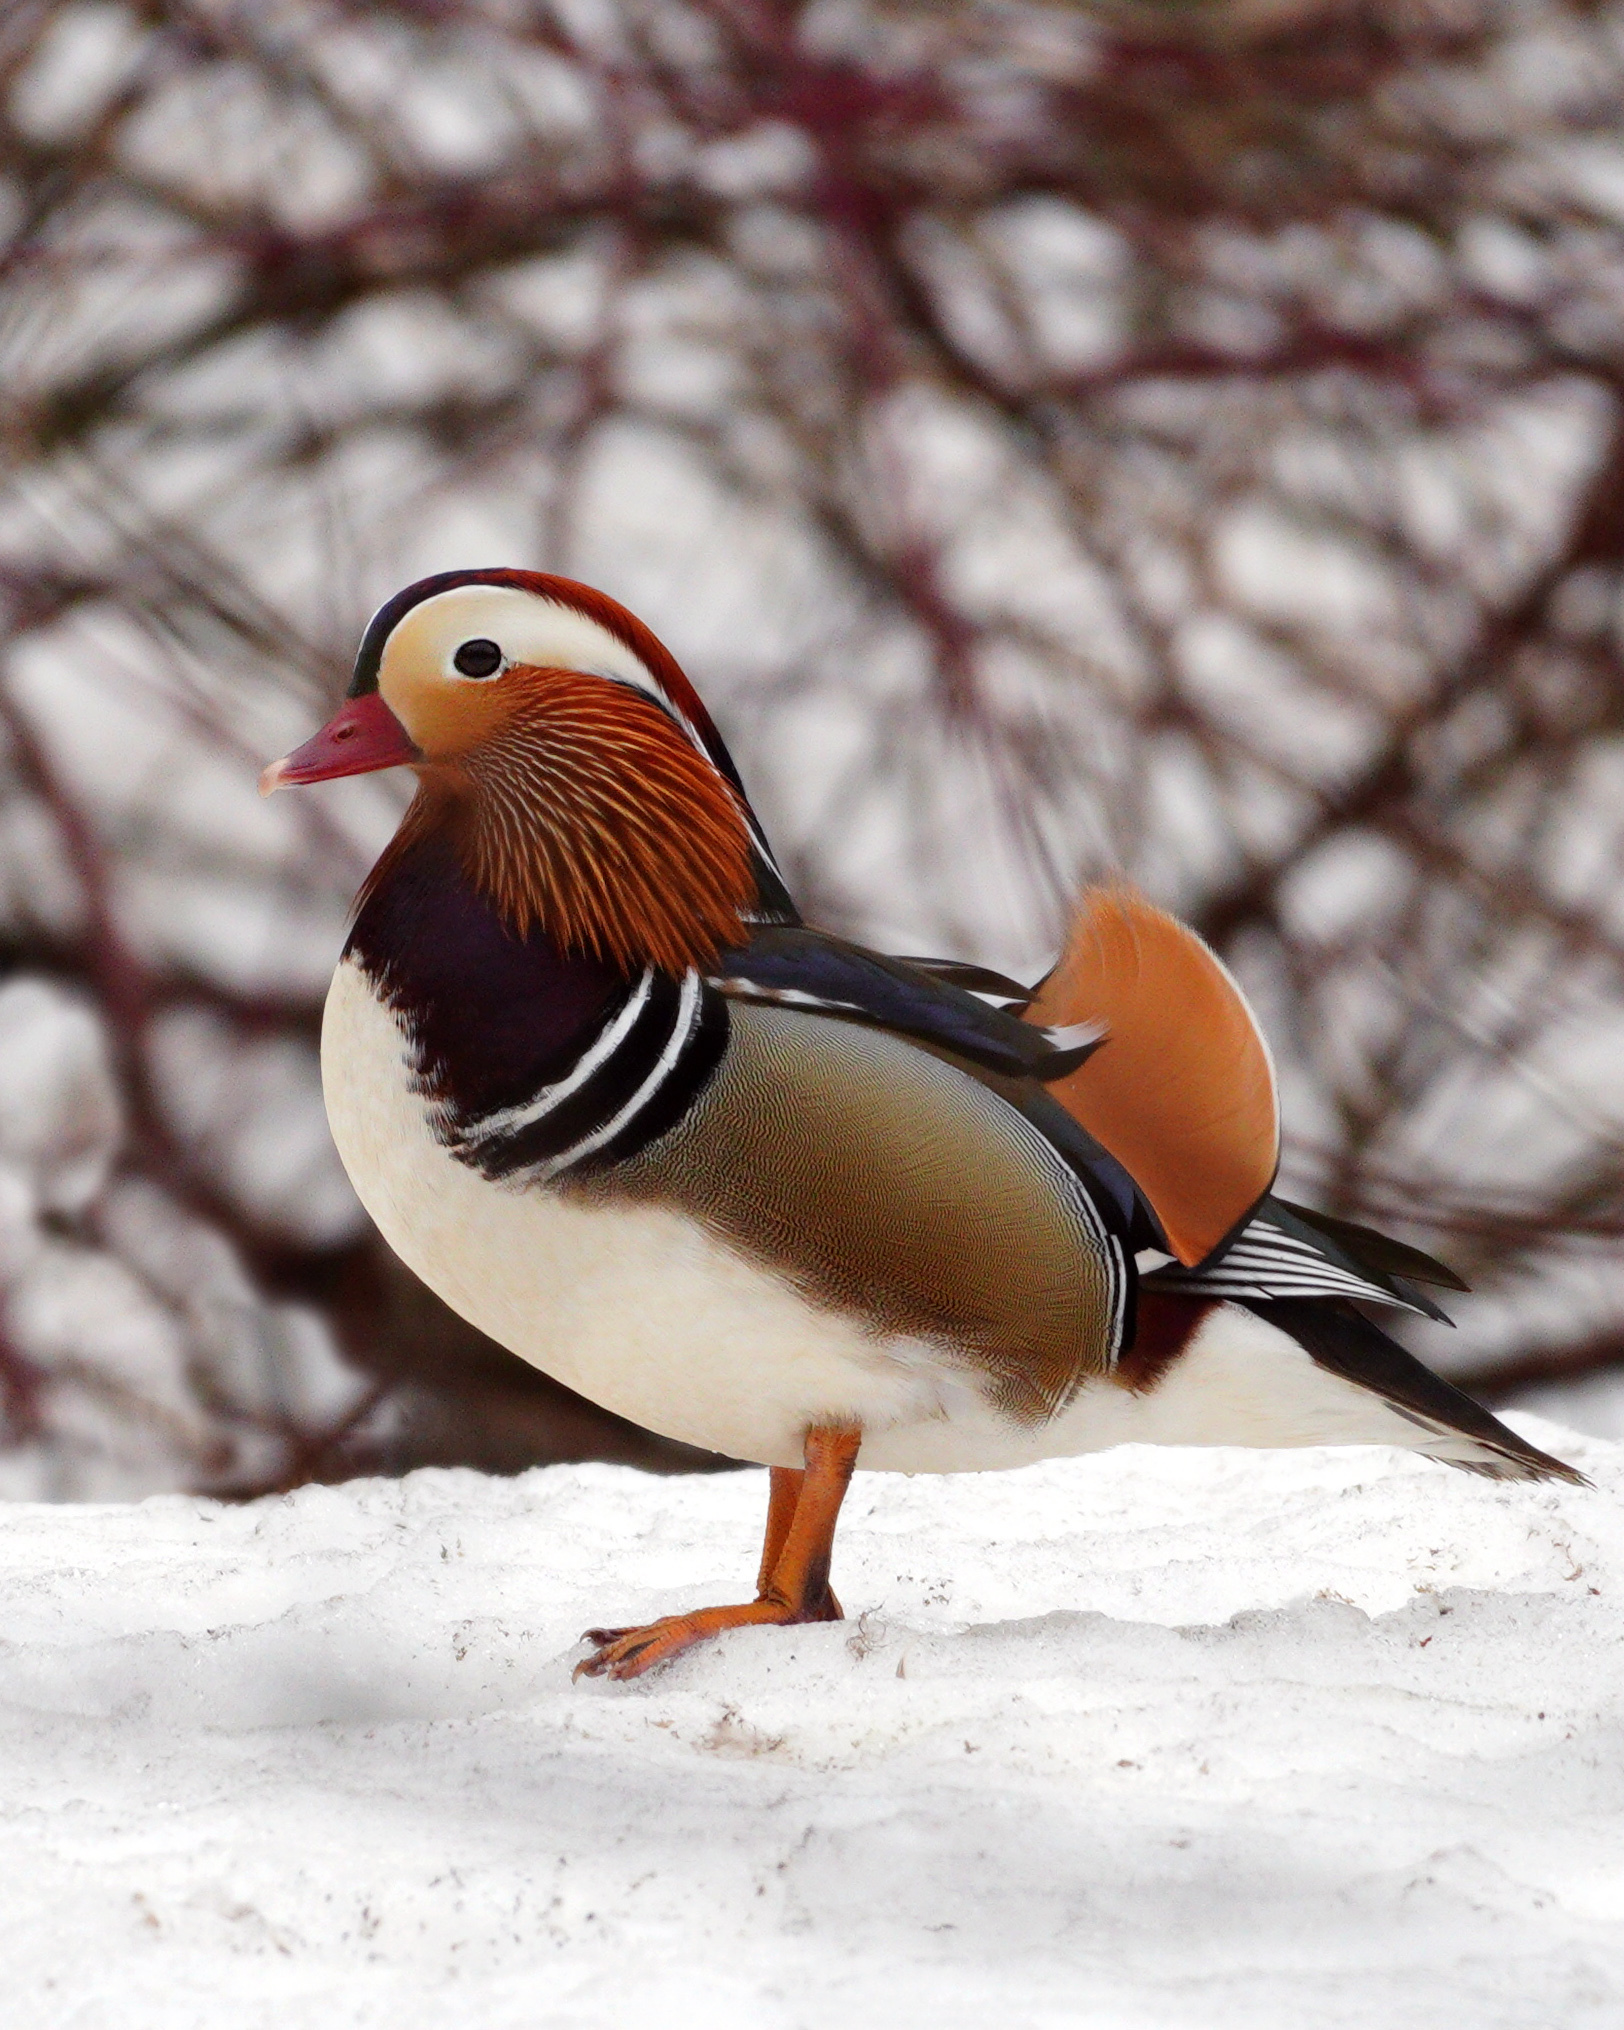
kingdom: Animalia
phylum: Chordata
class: Aves
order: Anseriformes
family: Anatidae
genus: Aix
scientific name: Aix galericulata
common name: Mandarin duck
